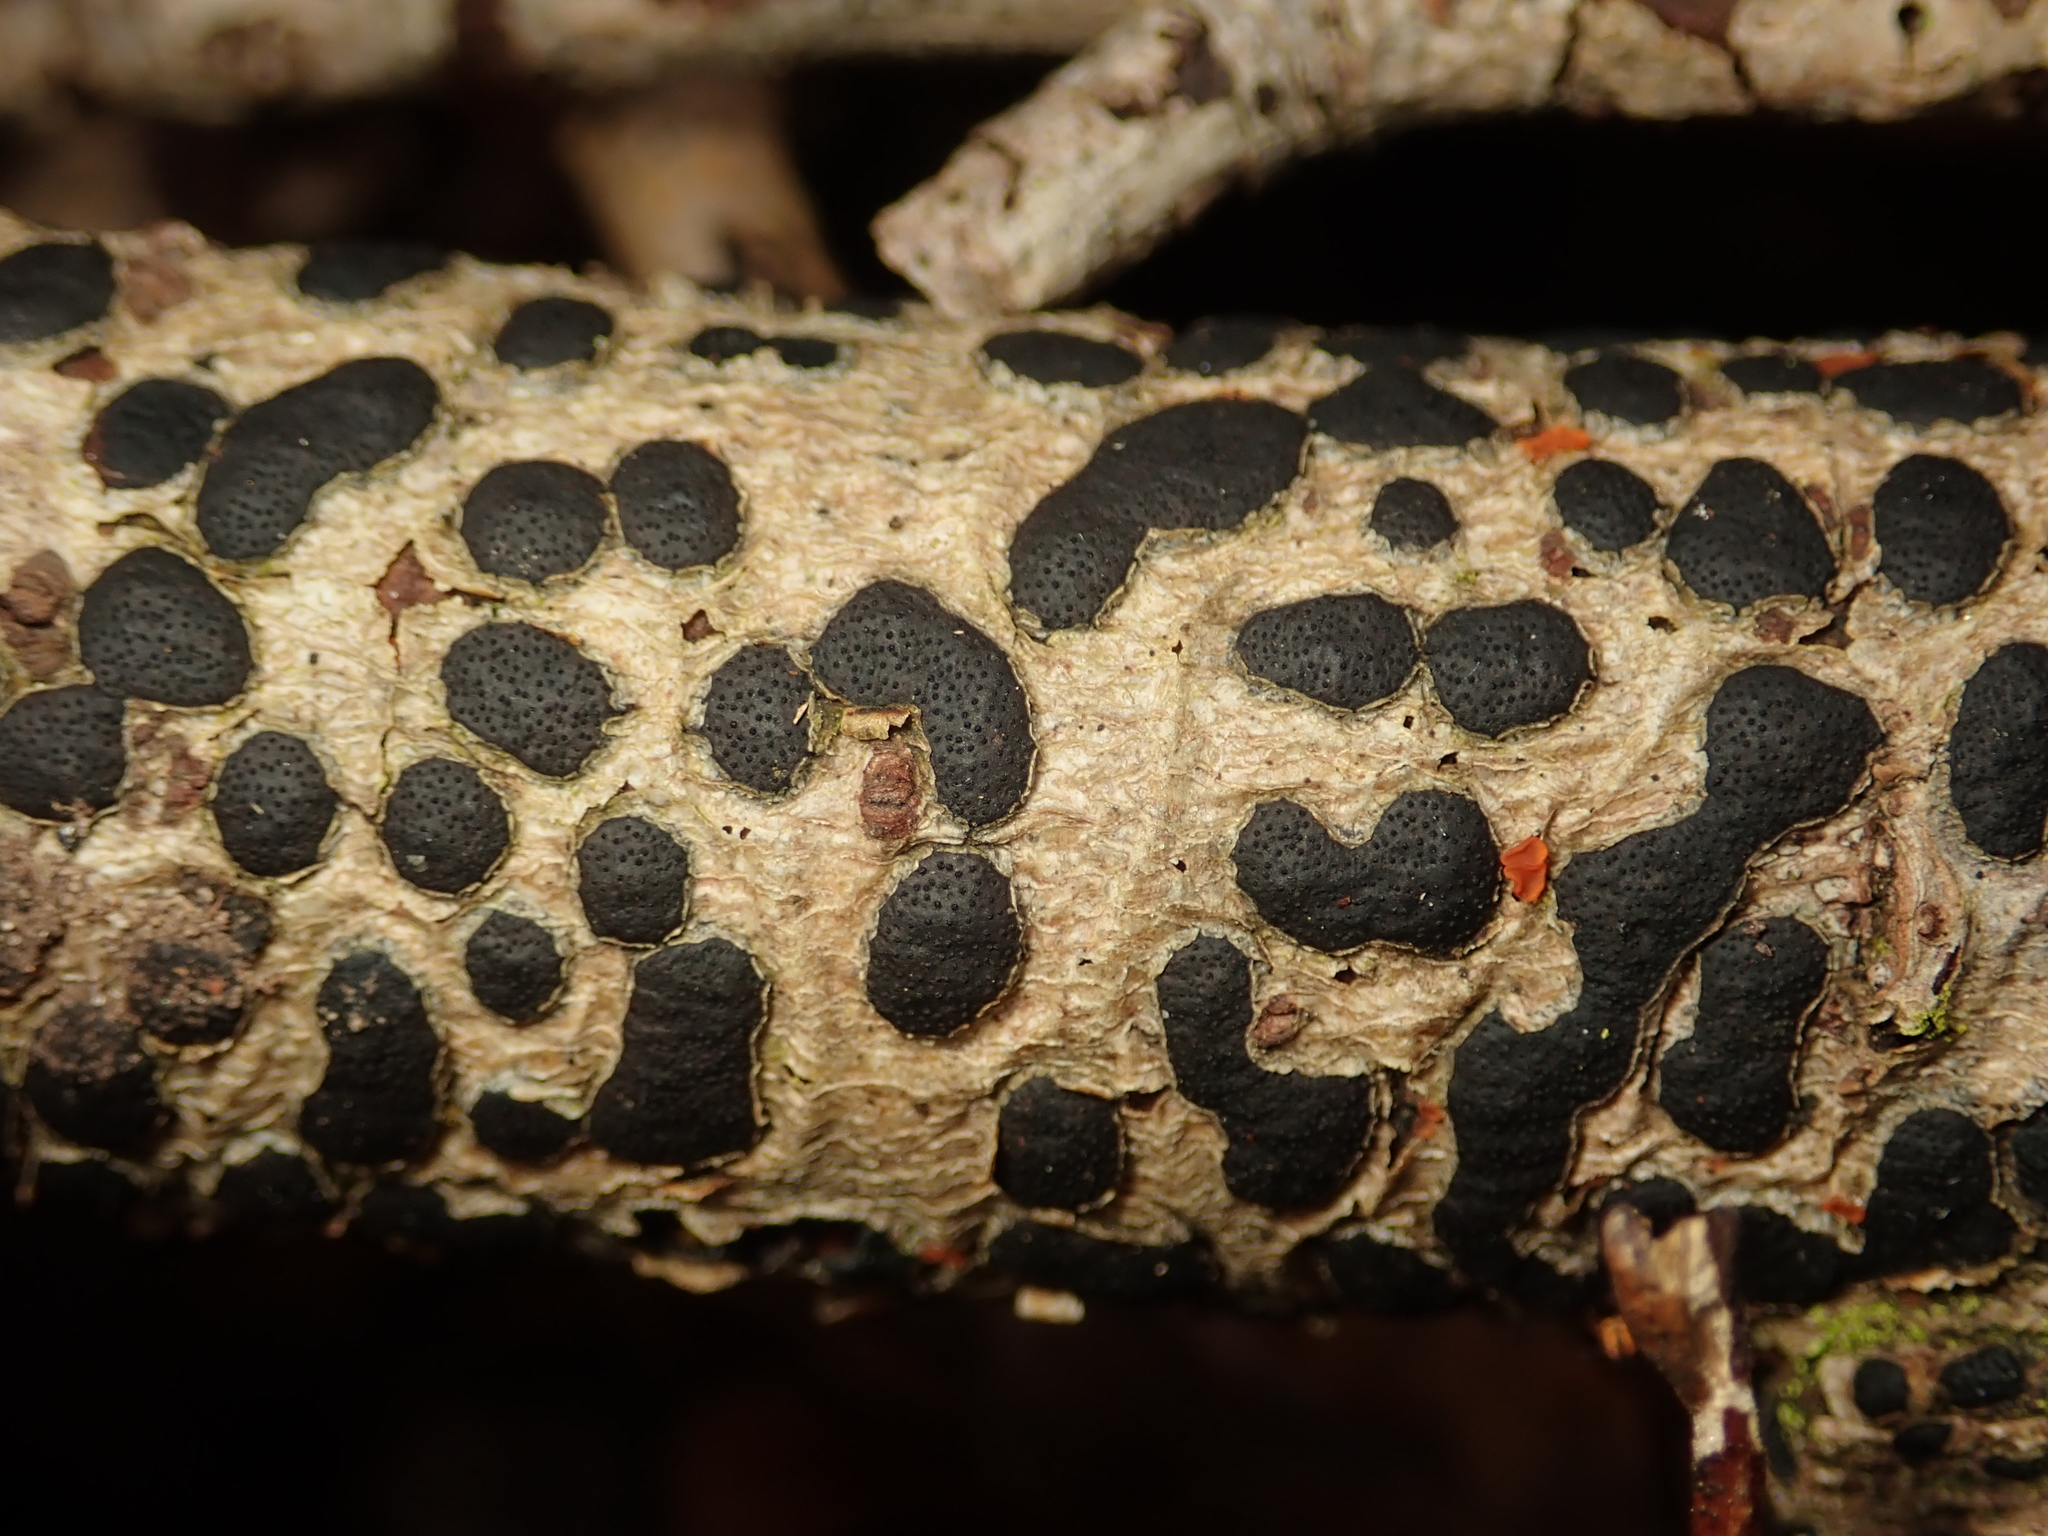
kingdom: Fungi
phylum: Ascomycota
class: Sordariomycetes
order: Xylariales
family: Diatrypaceae
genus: Diatrype
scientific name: Diatrype bullata
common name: Willow barkspot
